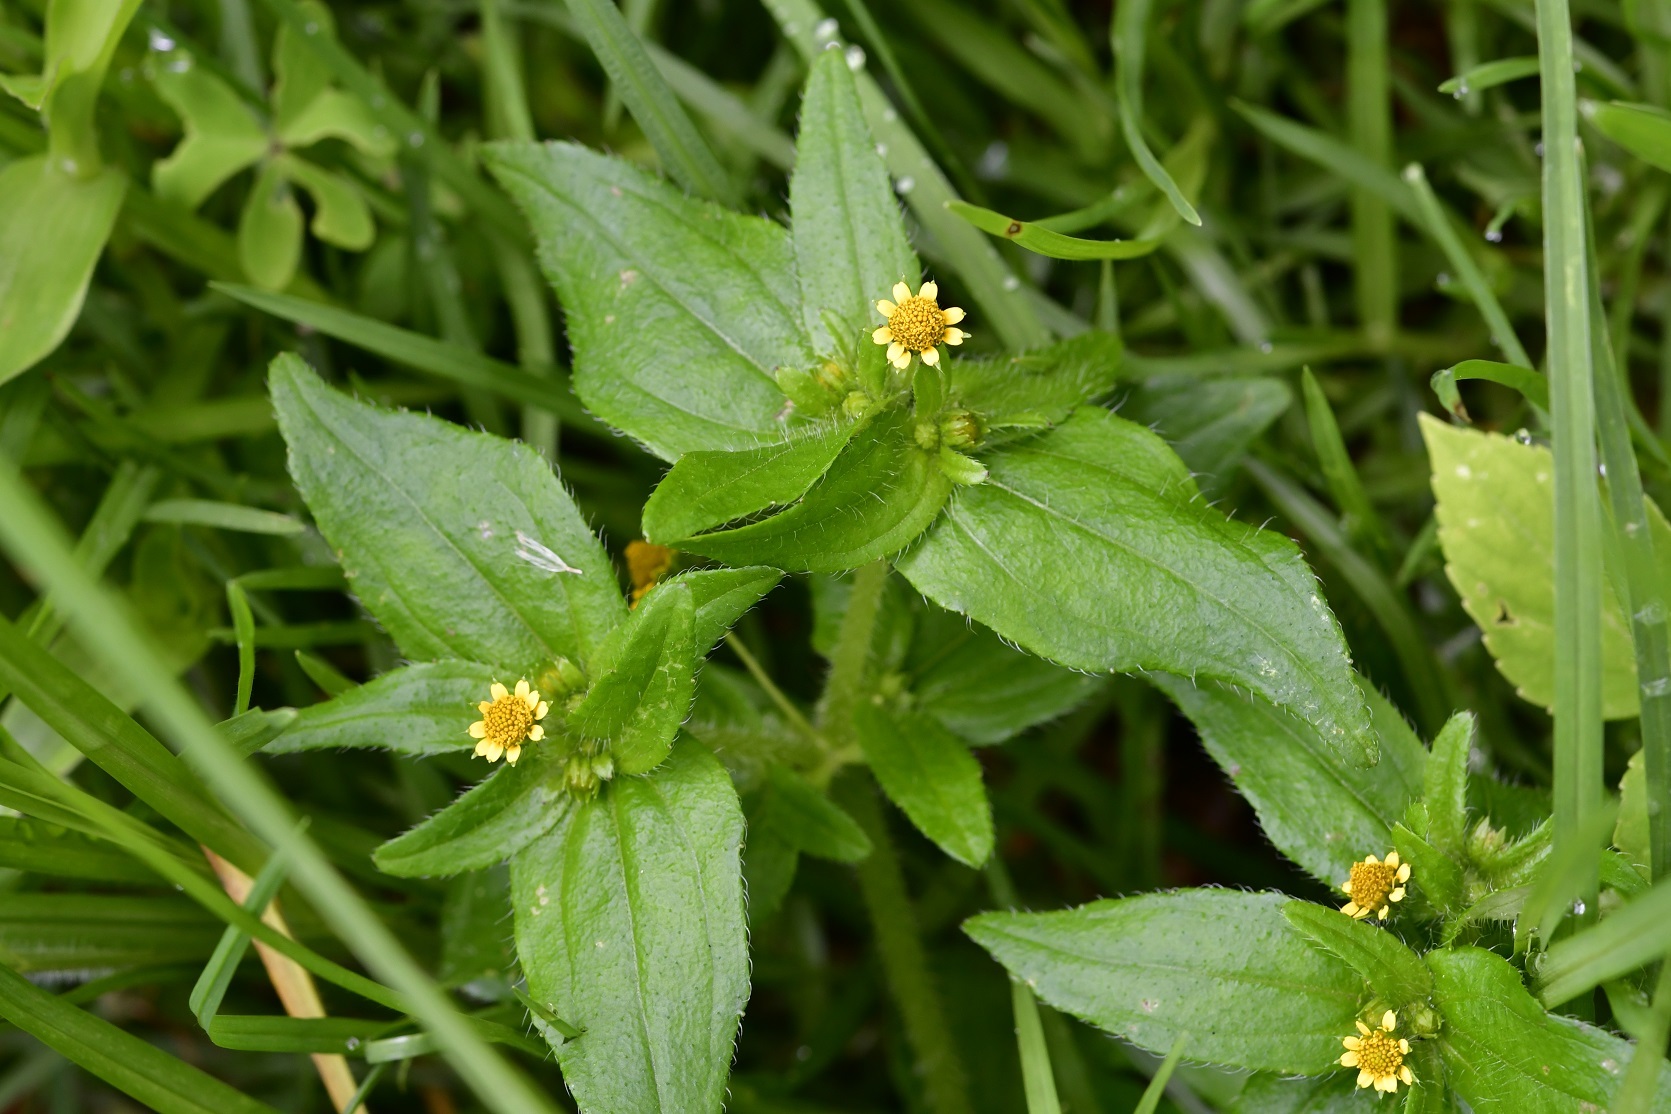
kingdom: Plantae
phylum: Tracheophyta
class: Magnoliopsida
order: Asterales
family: Asteraceae
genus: Jaegeria
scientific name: Jaegeria hirta
